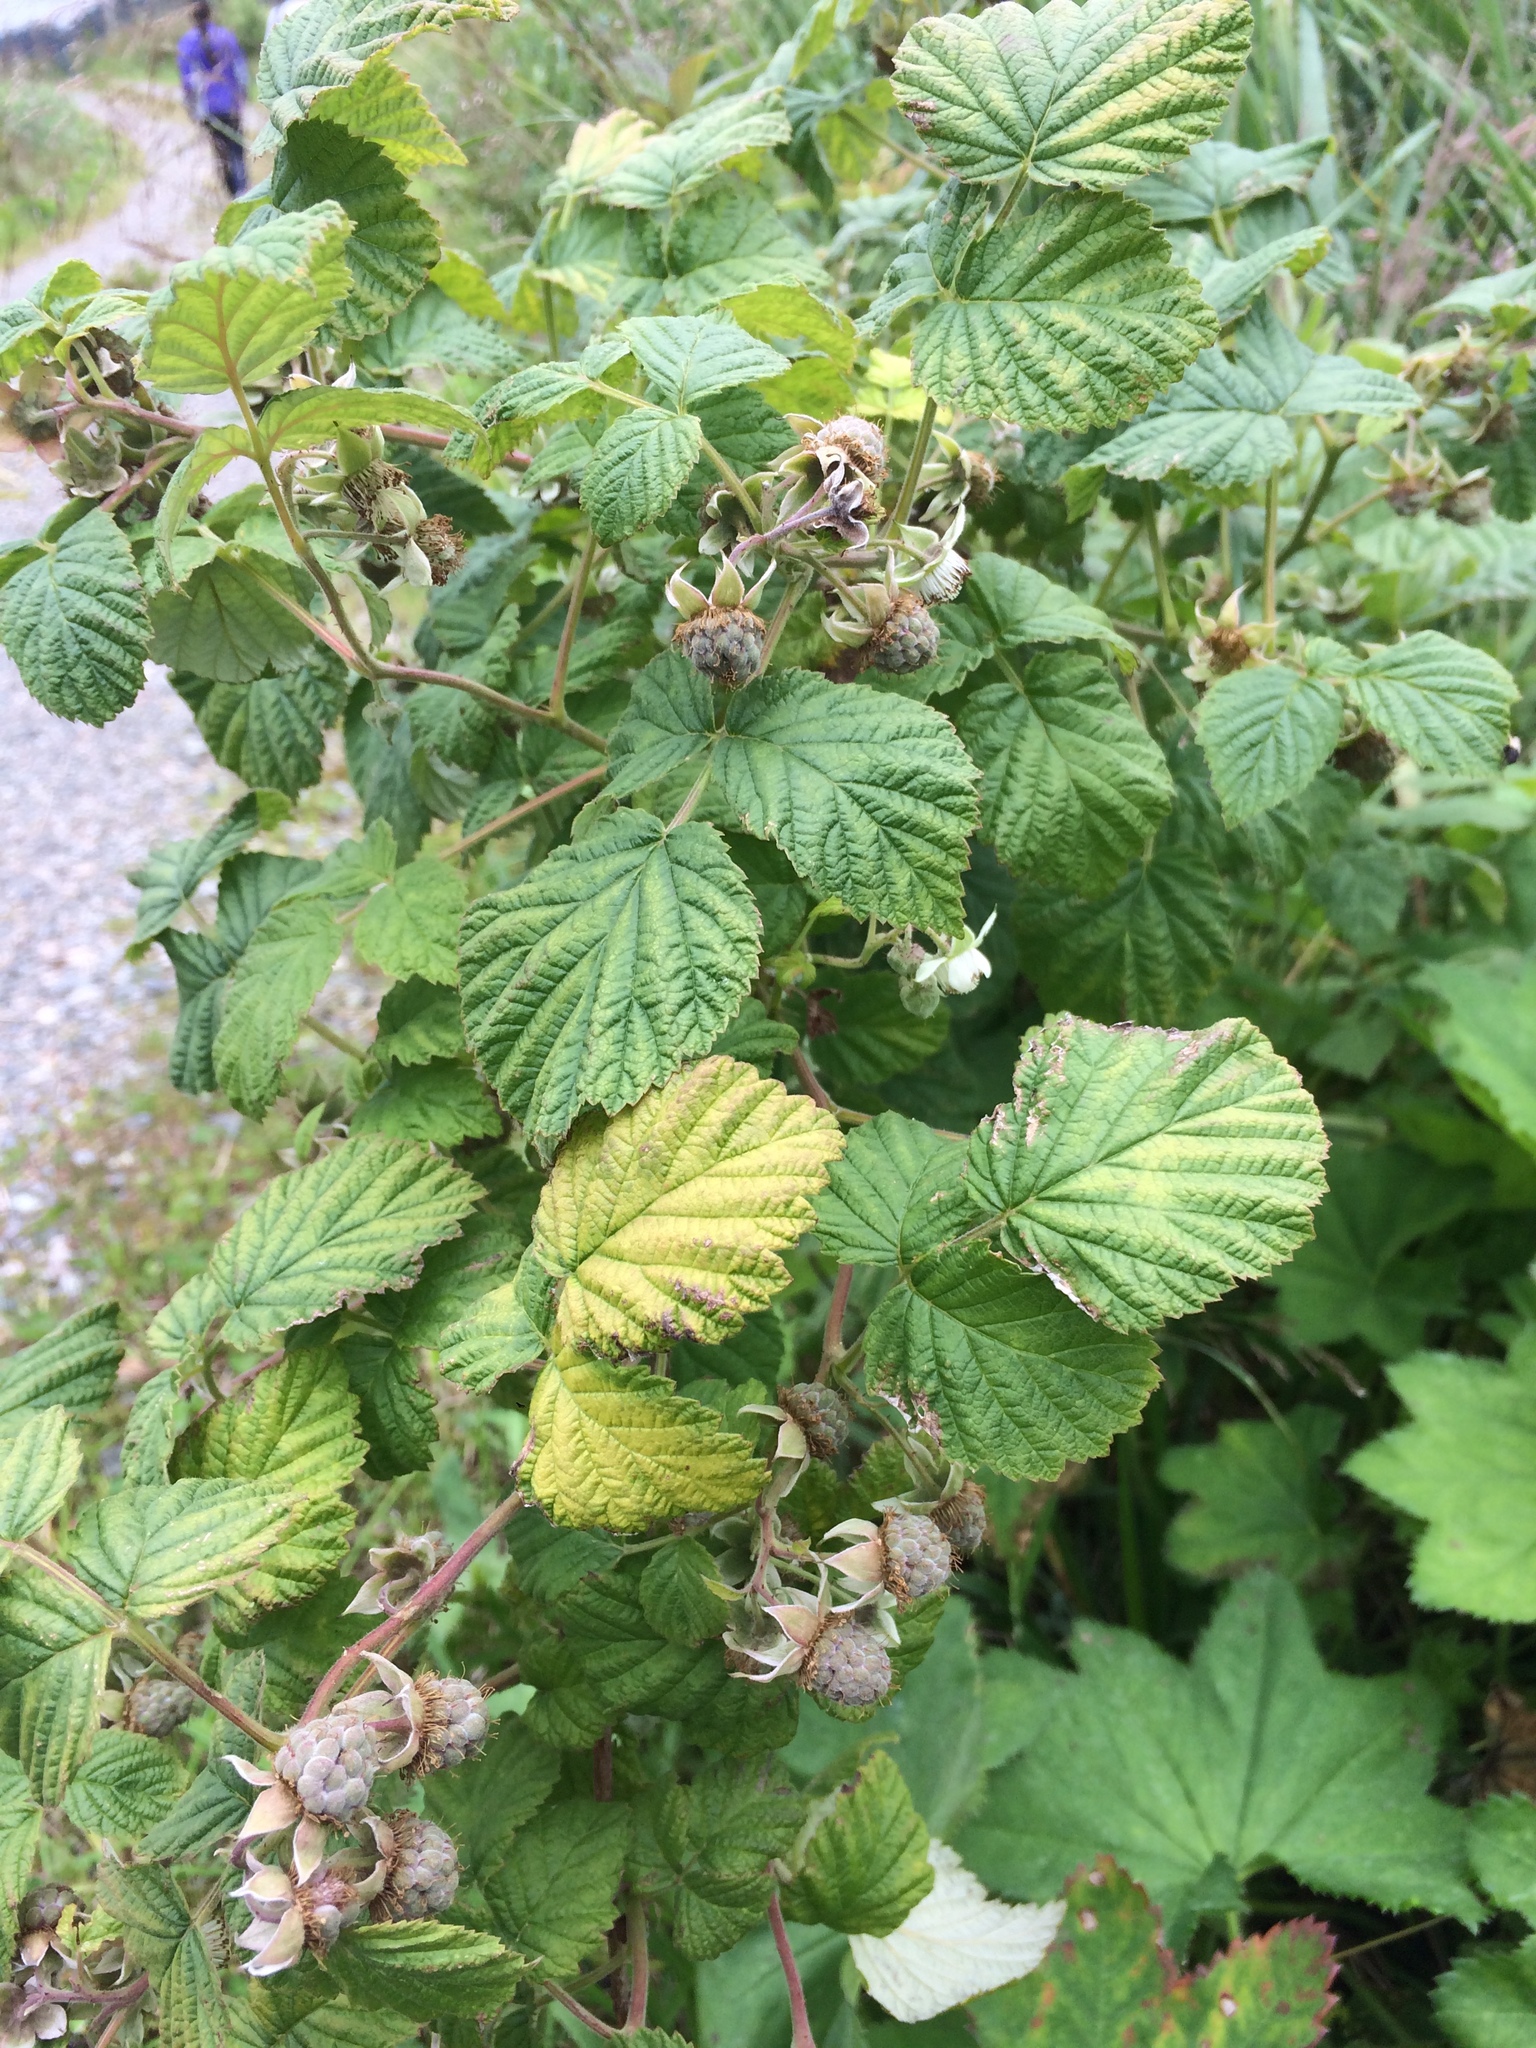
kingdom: Plantae
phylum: Tracheophyta
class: Magnoliopsida
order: Rosales
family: Rosaceae
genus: Rubus
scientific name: Rubus idaeus
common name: Raspberry
